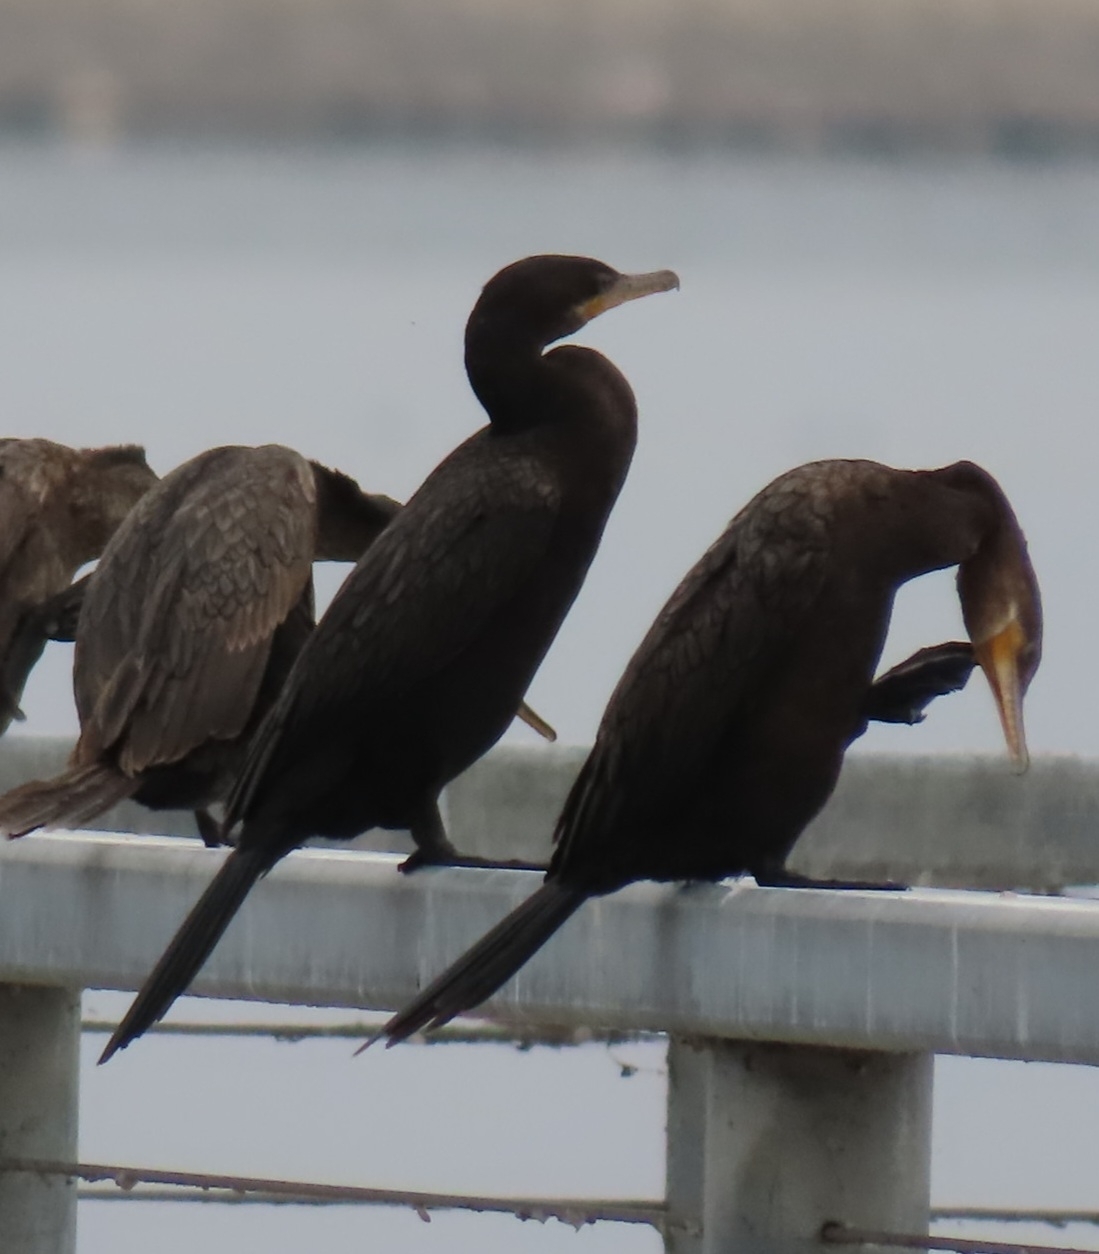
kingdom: Animalia
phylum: Chordata
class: Aves
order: Suliformes
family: Phalacrocoracidae
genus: Phalacrocorax
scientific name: Phalacrocorax brasilianus
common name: Neotropic cormorant
